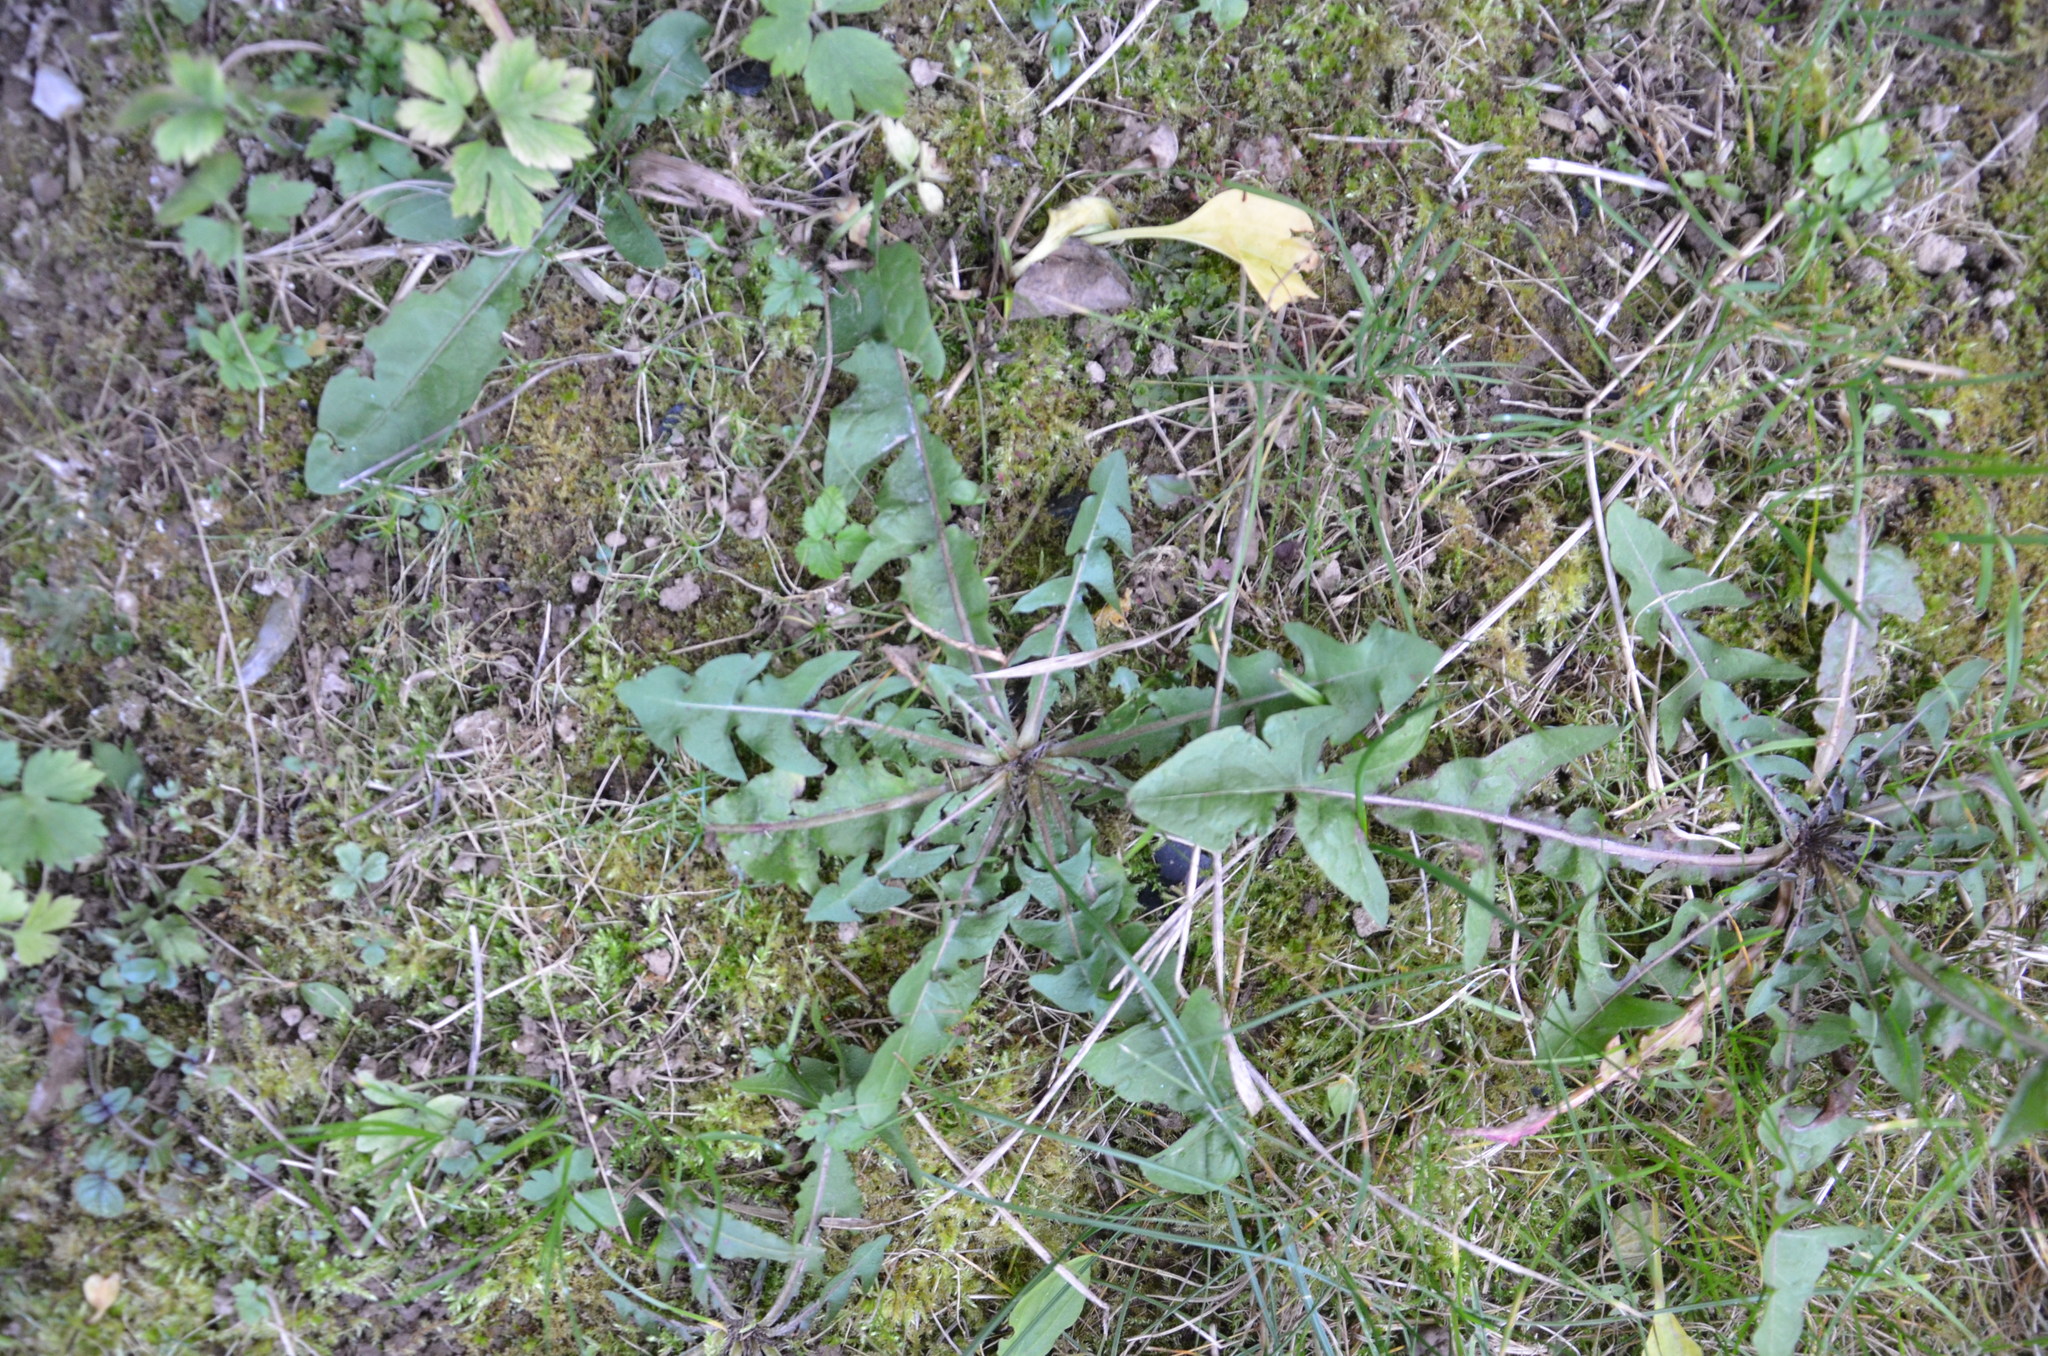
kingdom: Plantae
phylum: Tracheophyta
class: Magnoliopsida
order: Asterales
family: Asteraceae
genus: Taraxacum
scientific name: Taraxacum officinale
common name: Common dandelion
